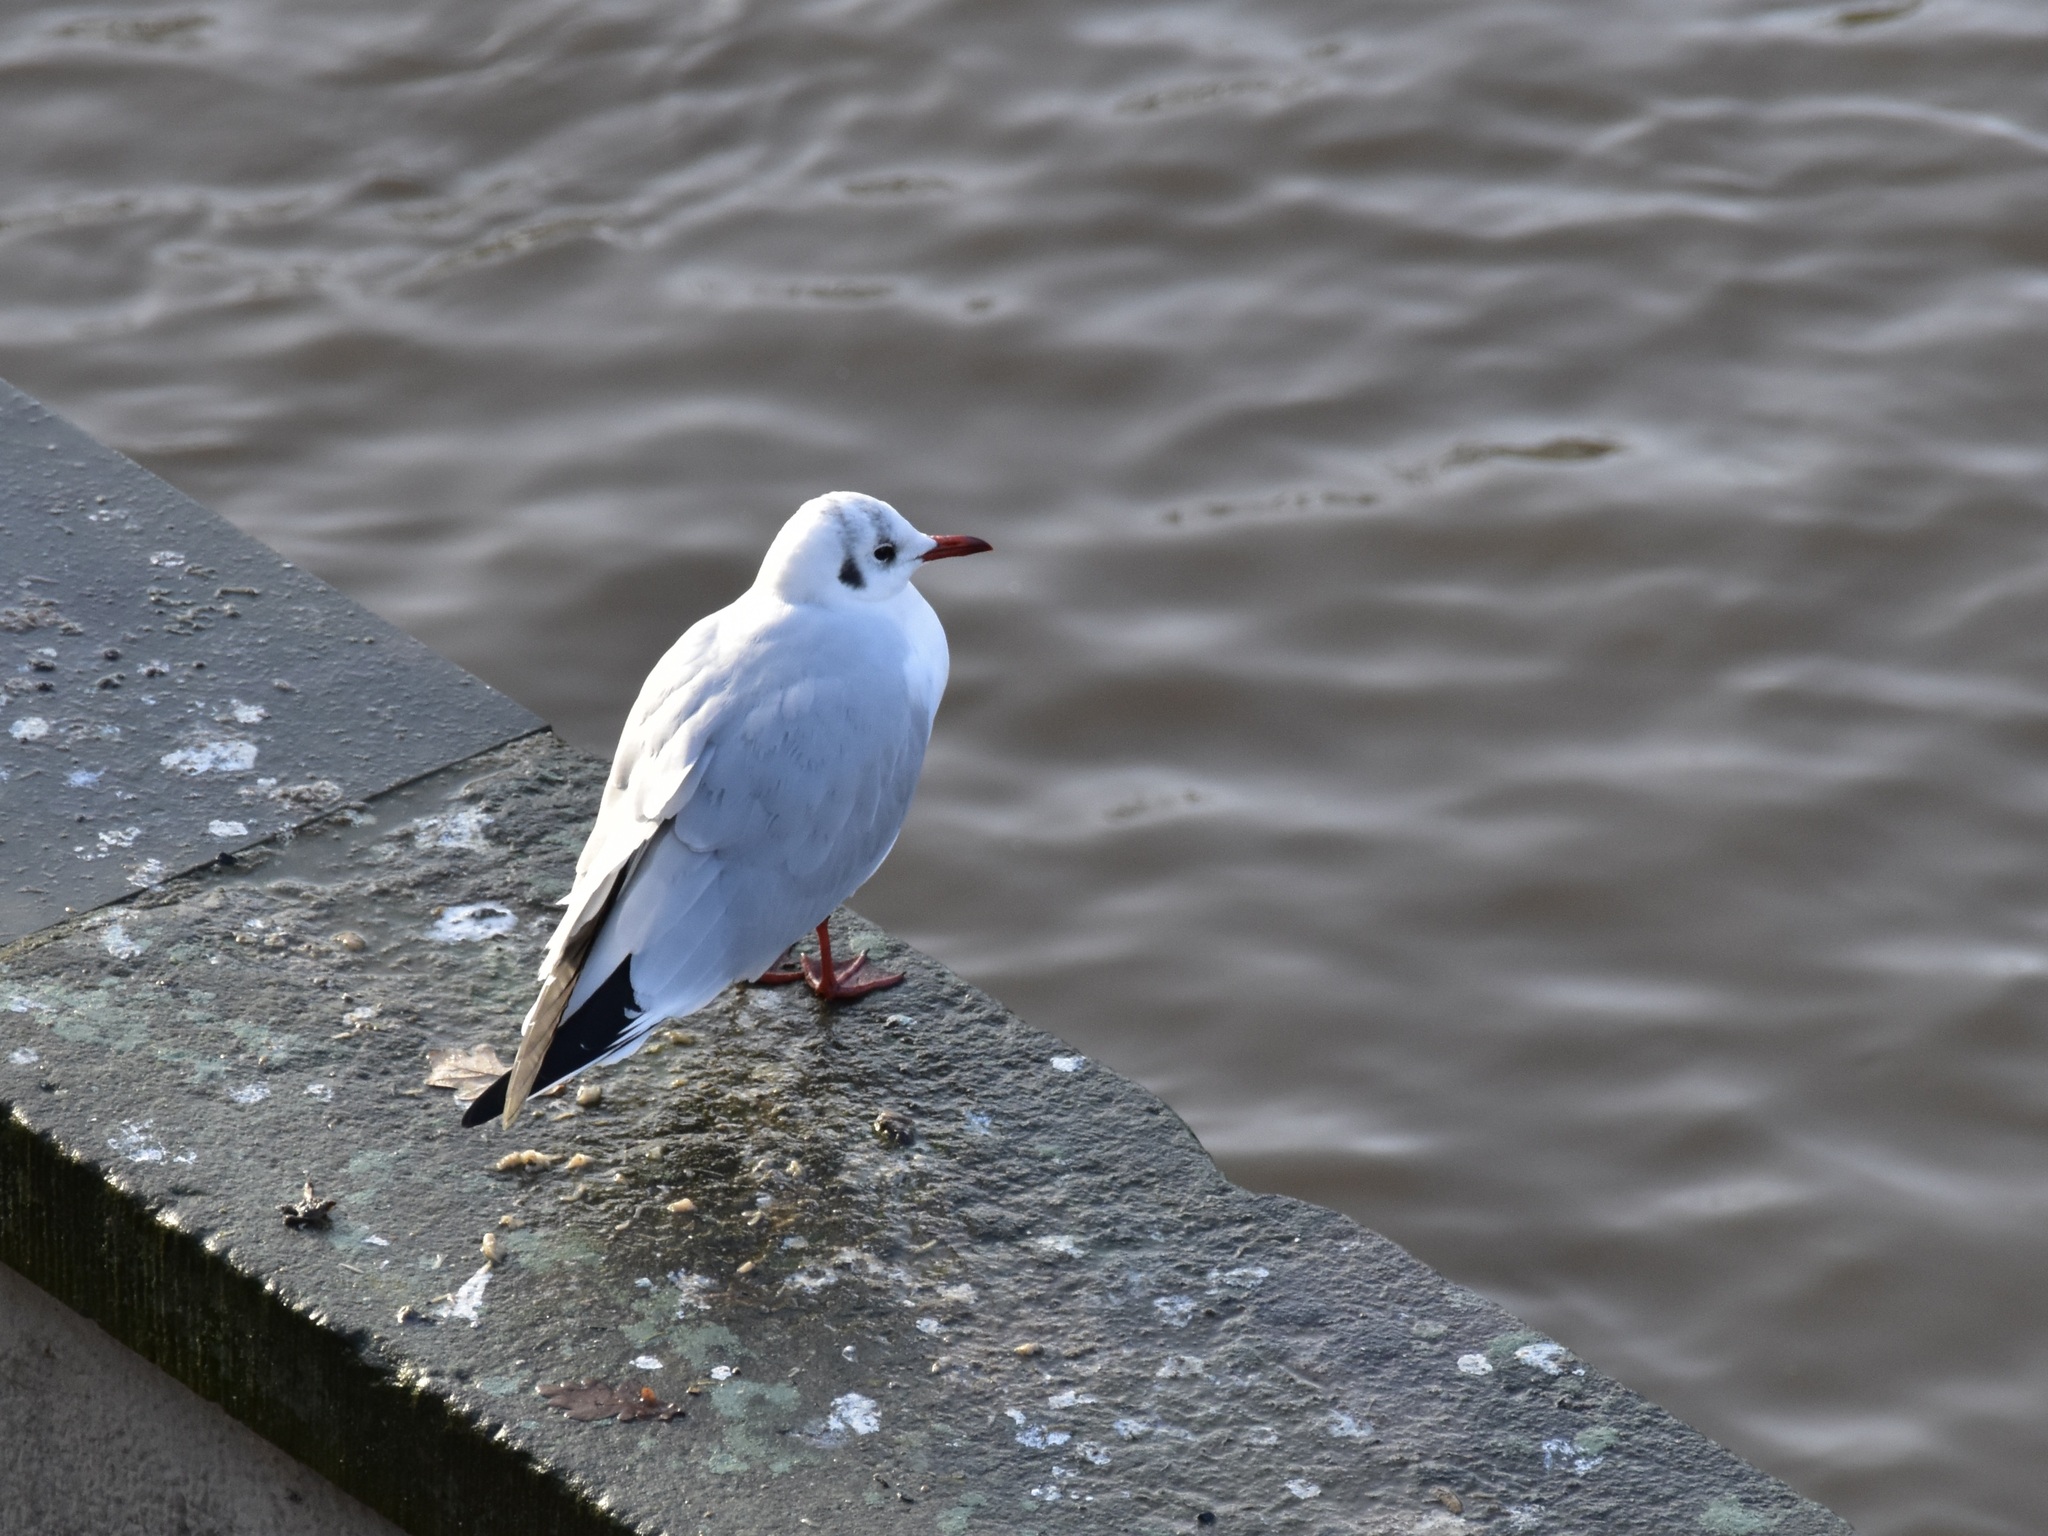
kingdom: Animalia
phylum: Chordata
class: Aves
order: Charadriiformes
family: Laridae
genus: Chroicocephalus
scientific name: Chroicocephalus ridibundus
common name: Black-headed gull
